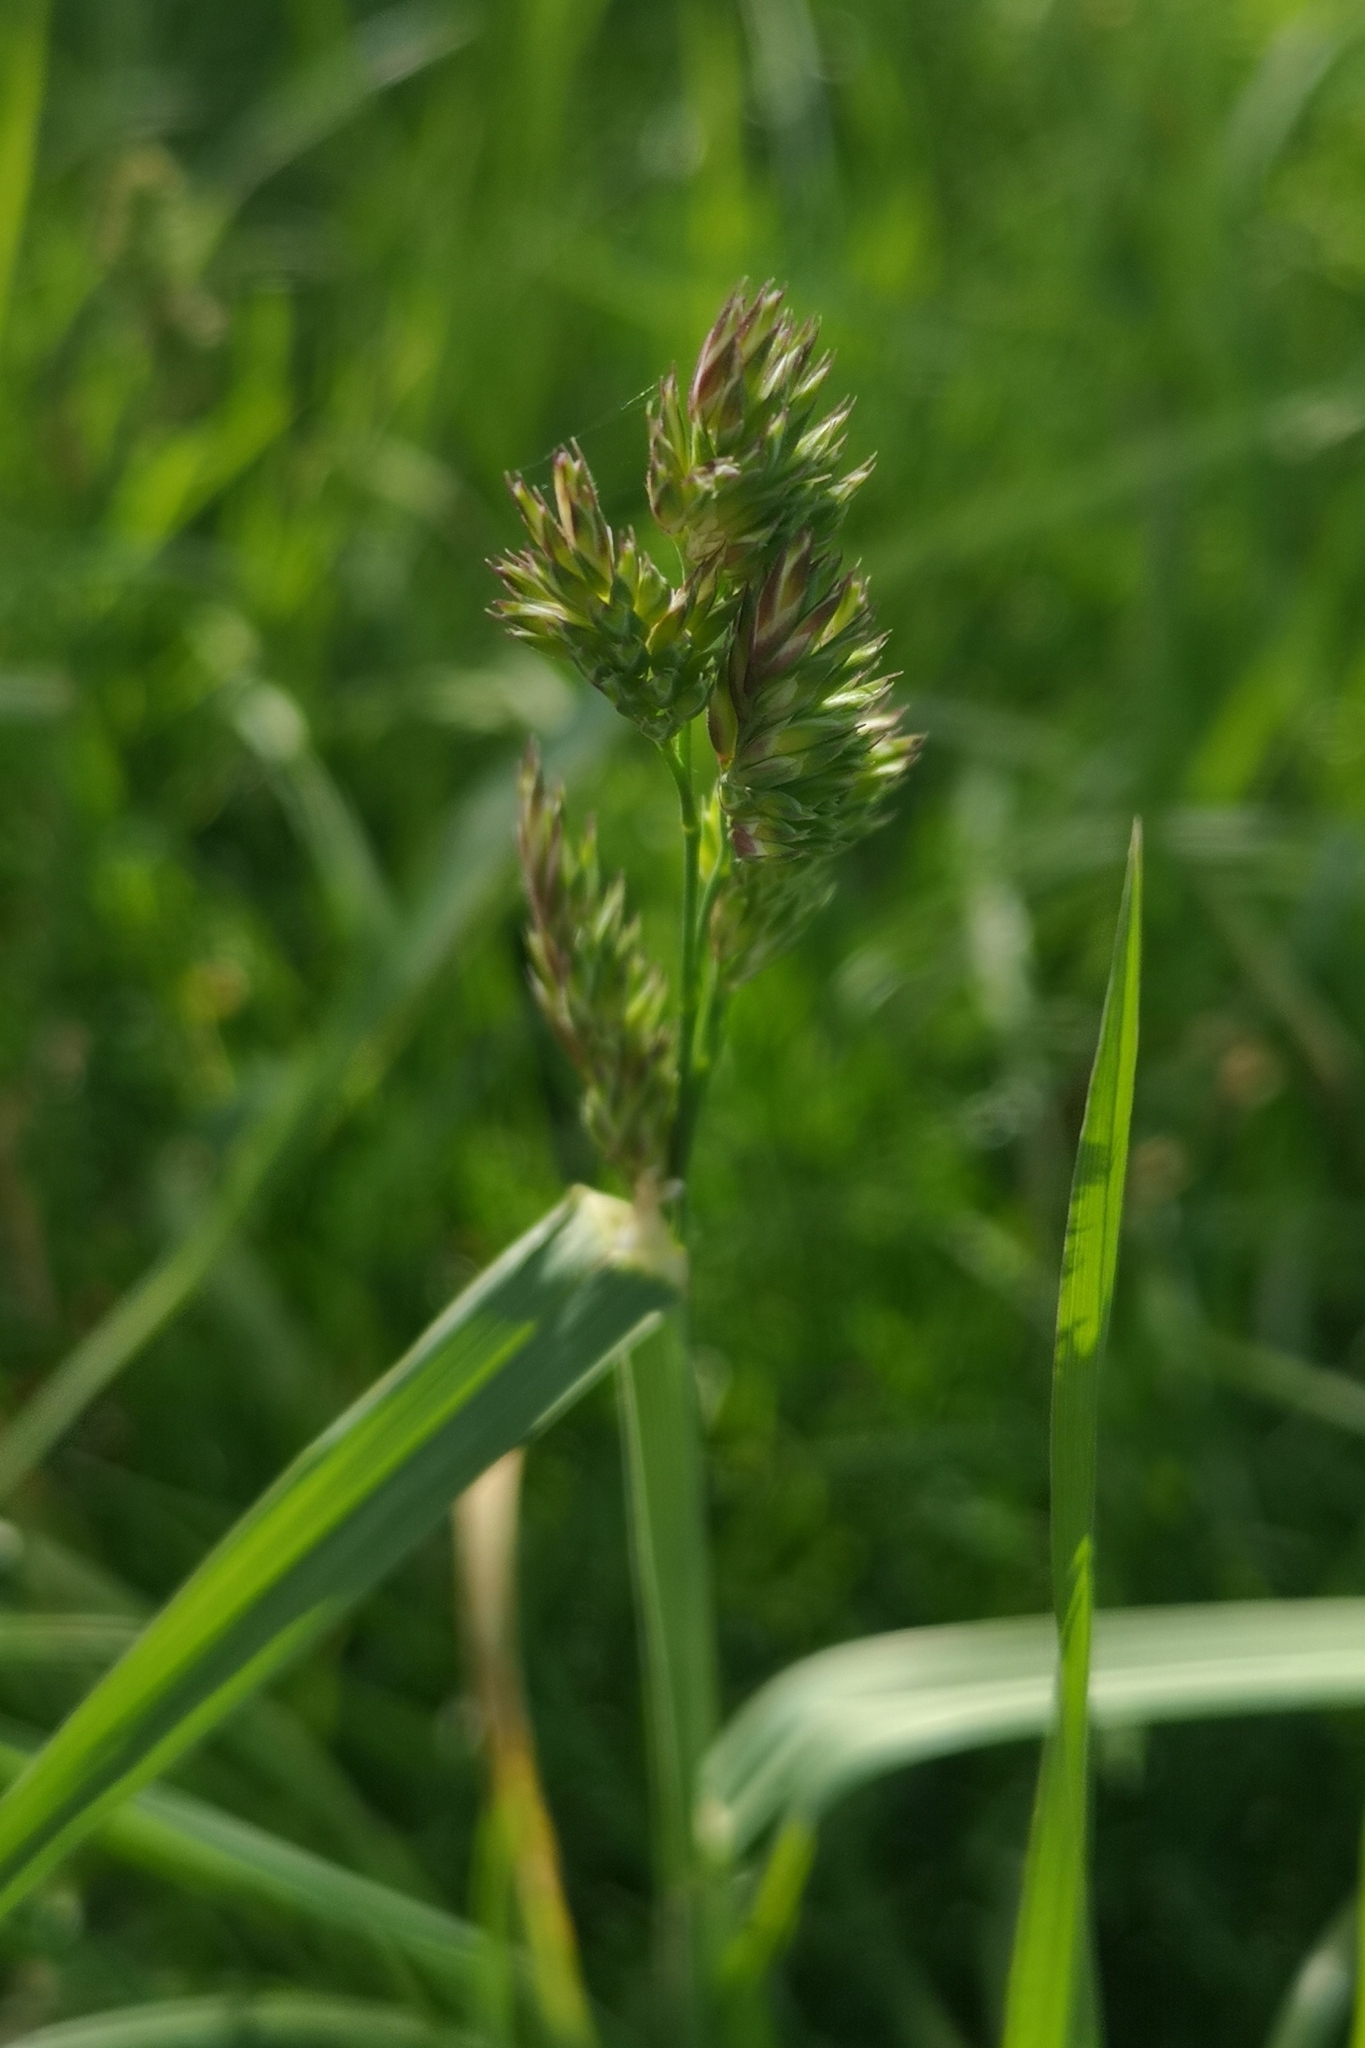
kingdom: Plantae
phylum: Tracheophyta
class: Liliopsida
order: Poales
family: Poaceae
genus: Dactylis
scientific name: Dactylis glomerata
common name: Orchardgrass
